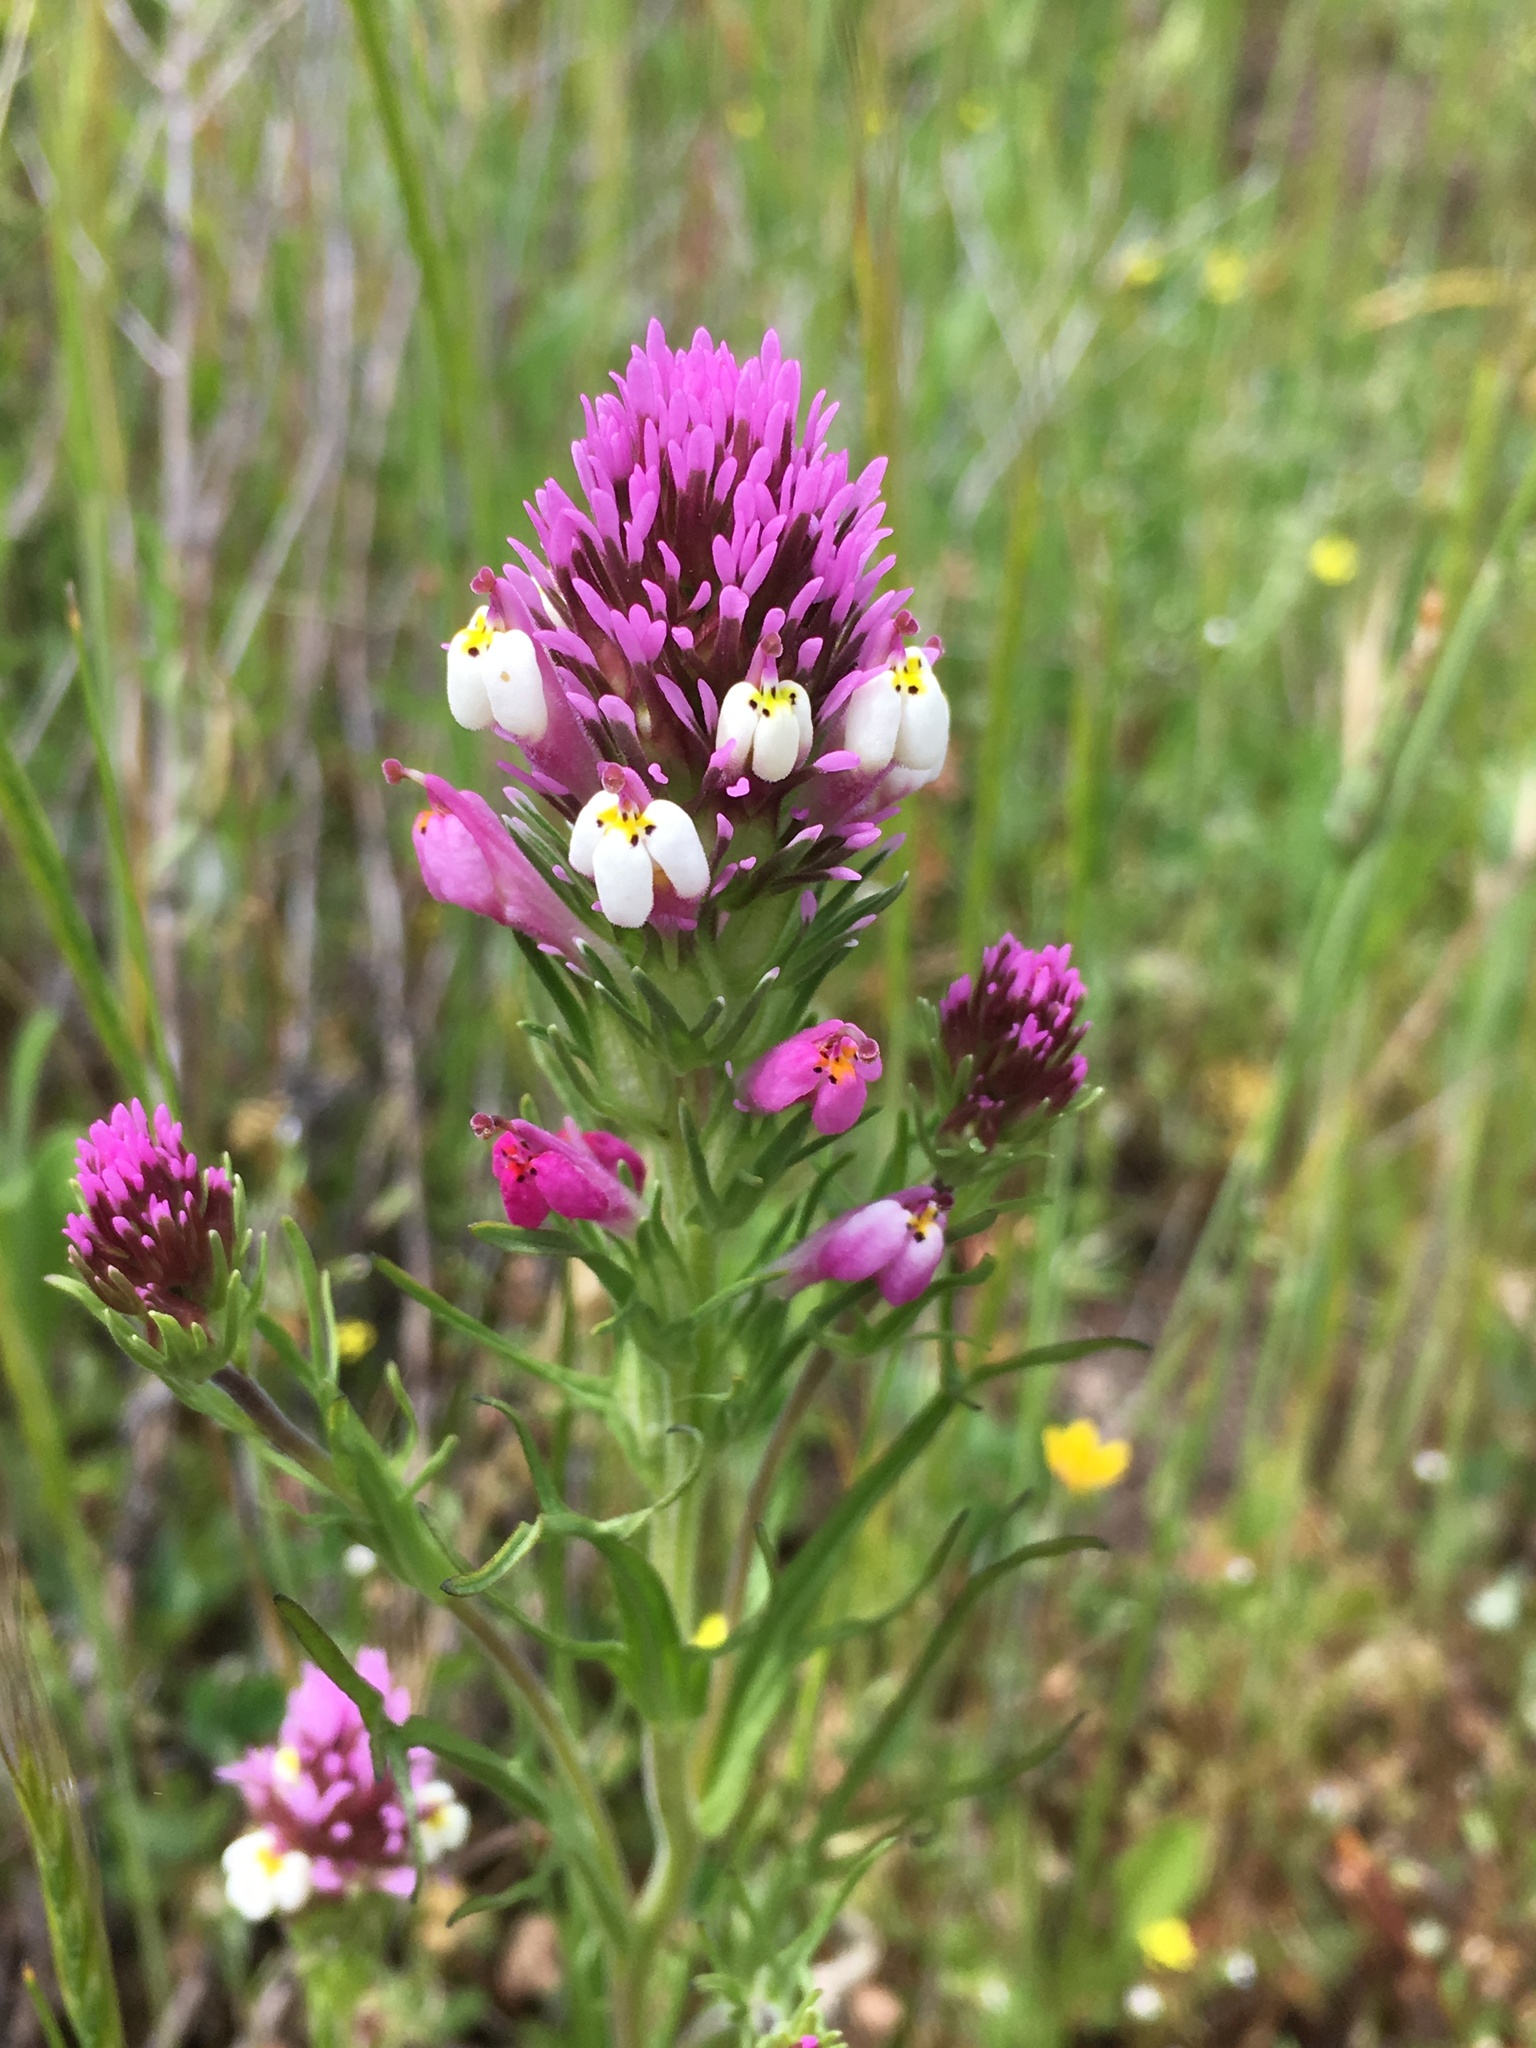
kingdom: Plantae
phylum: Tracheophyta
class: Magnoliopsida
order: Lamiales
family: Orobanchaceae
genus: Castilleja
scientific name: Castilleja densiflora
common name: Dense-flower indian paintbrush
